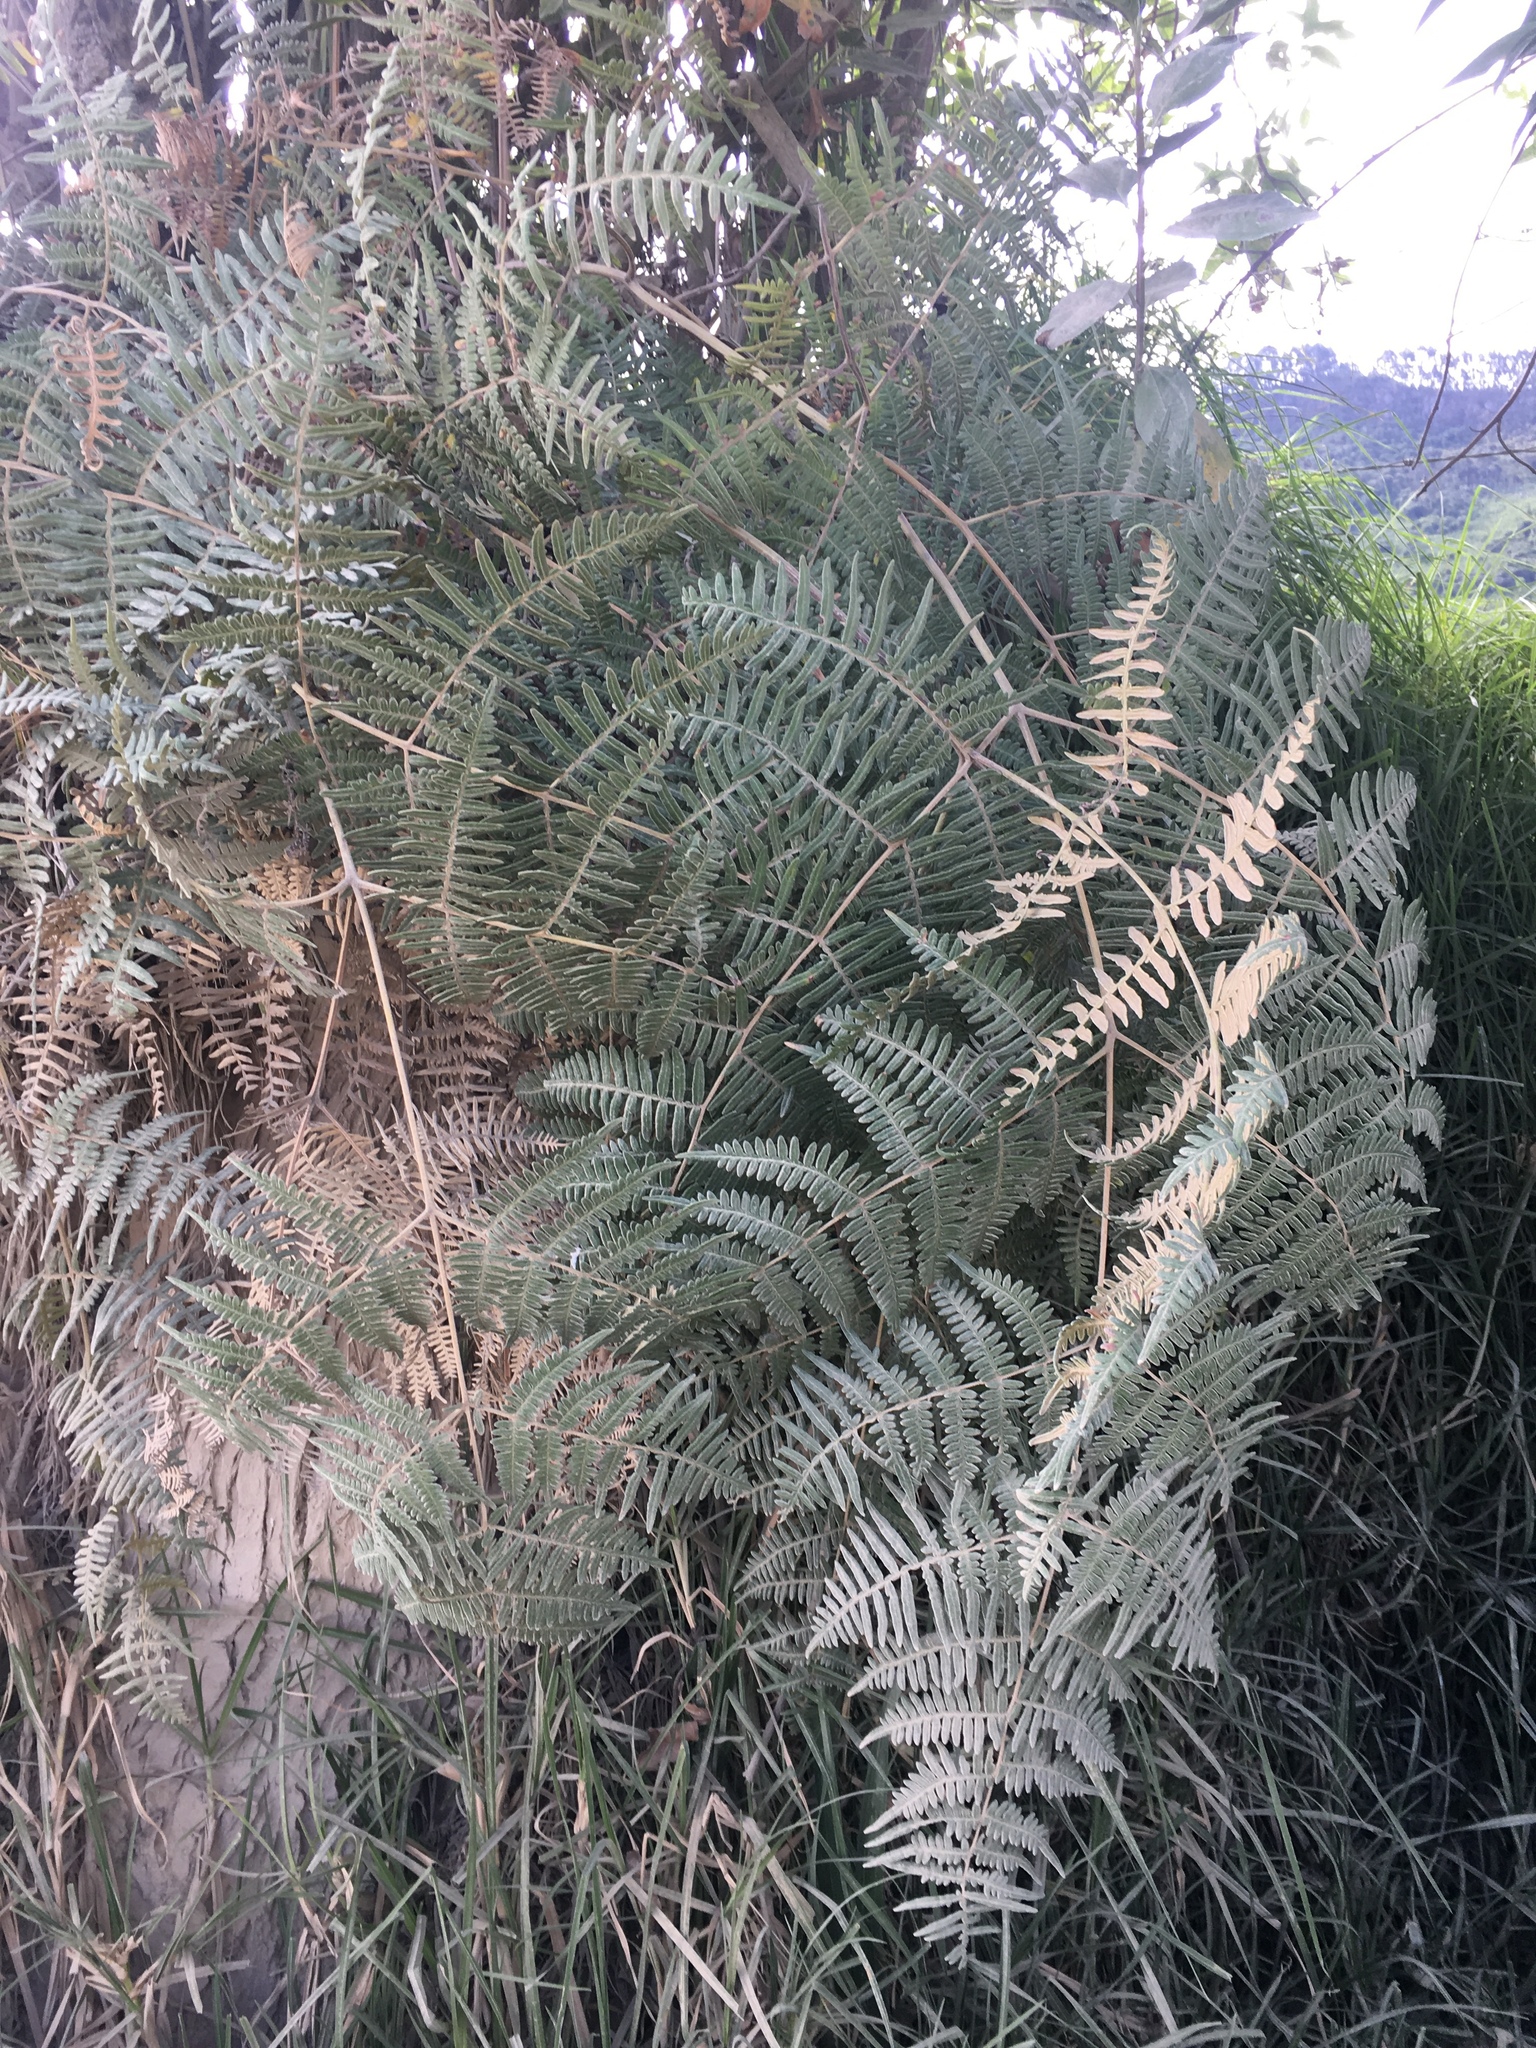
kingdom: Plantae
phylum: Tracheophyta
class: Polypodiopsida
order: Polypodiales
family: Dennstaedtiaceae
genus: Pteridium
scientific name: Pteridium esculentum
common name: Bracken fern
